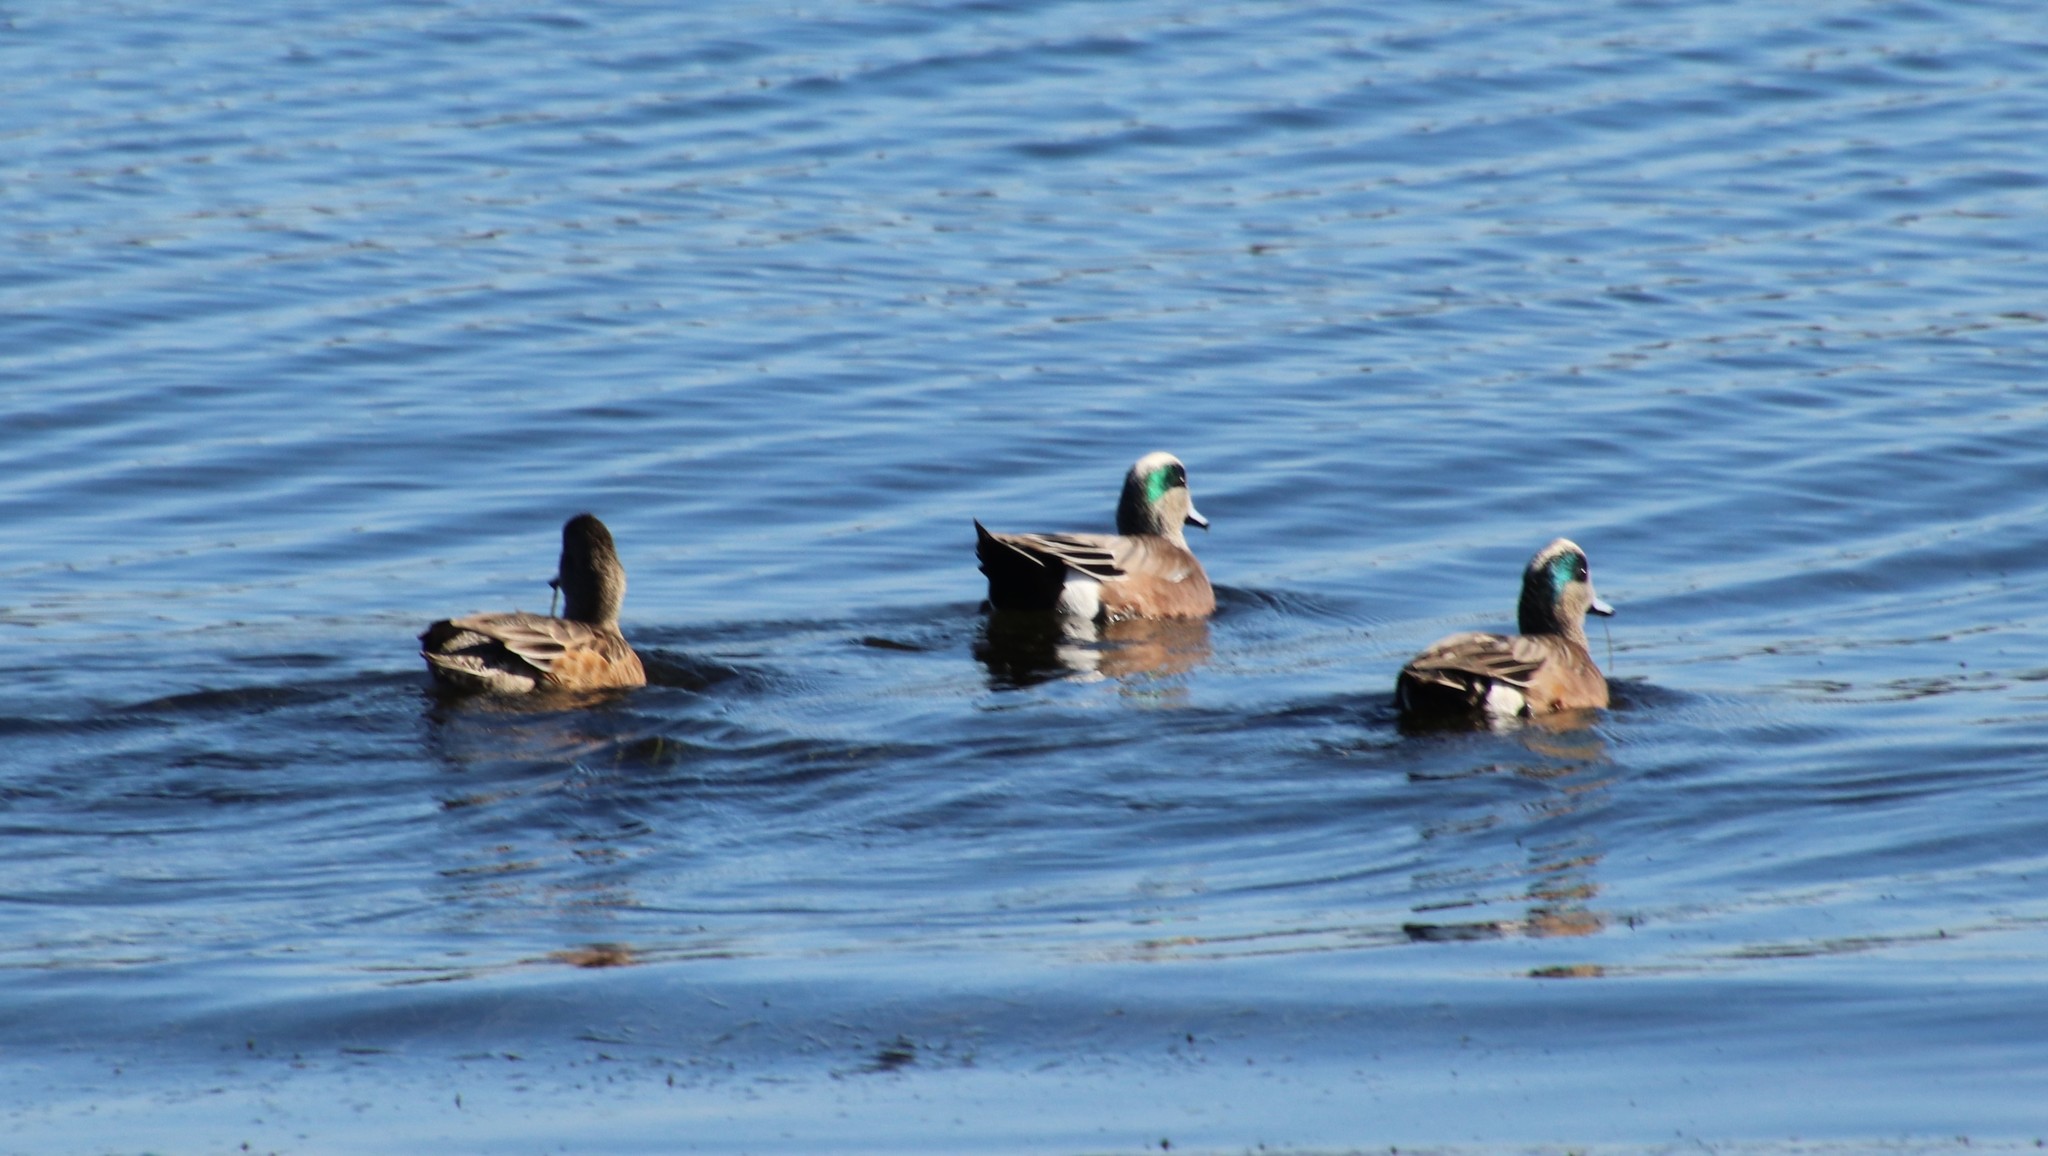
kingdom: Animalia
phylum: Chordata
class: Aves
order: Anseriformes
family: Anatidae
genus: Mareca
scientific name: Mareca americana
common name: American wigeon
